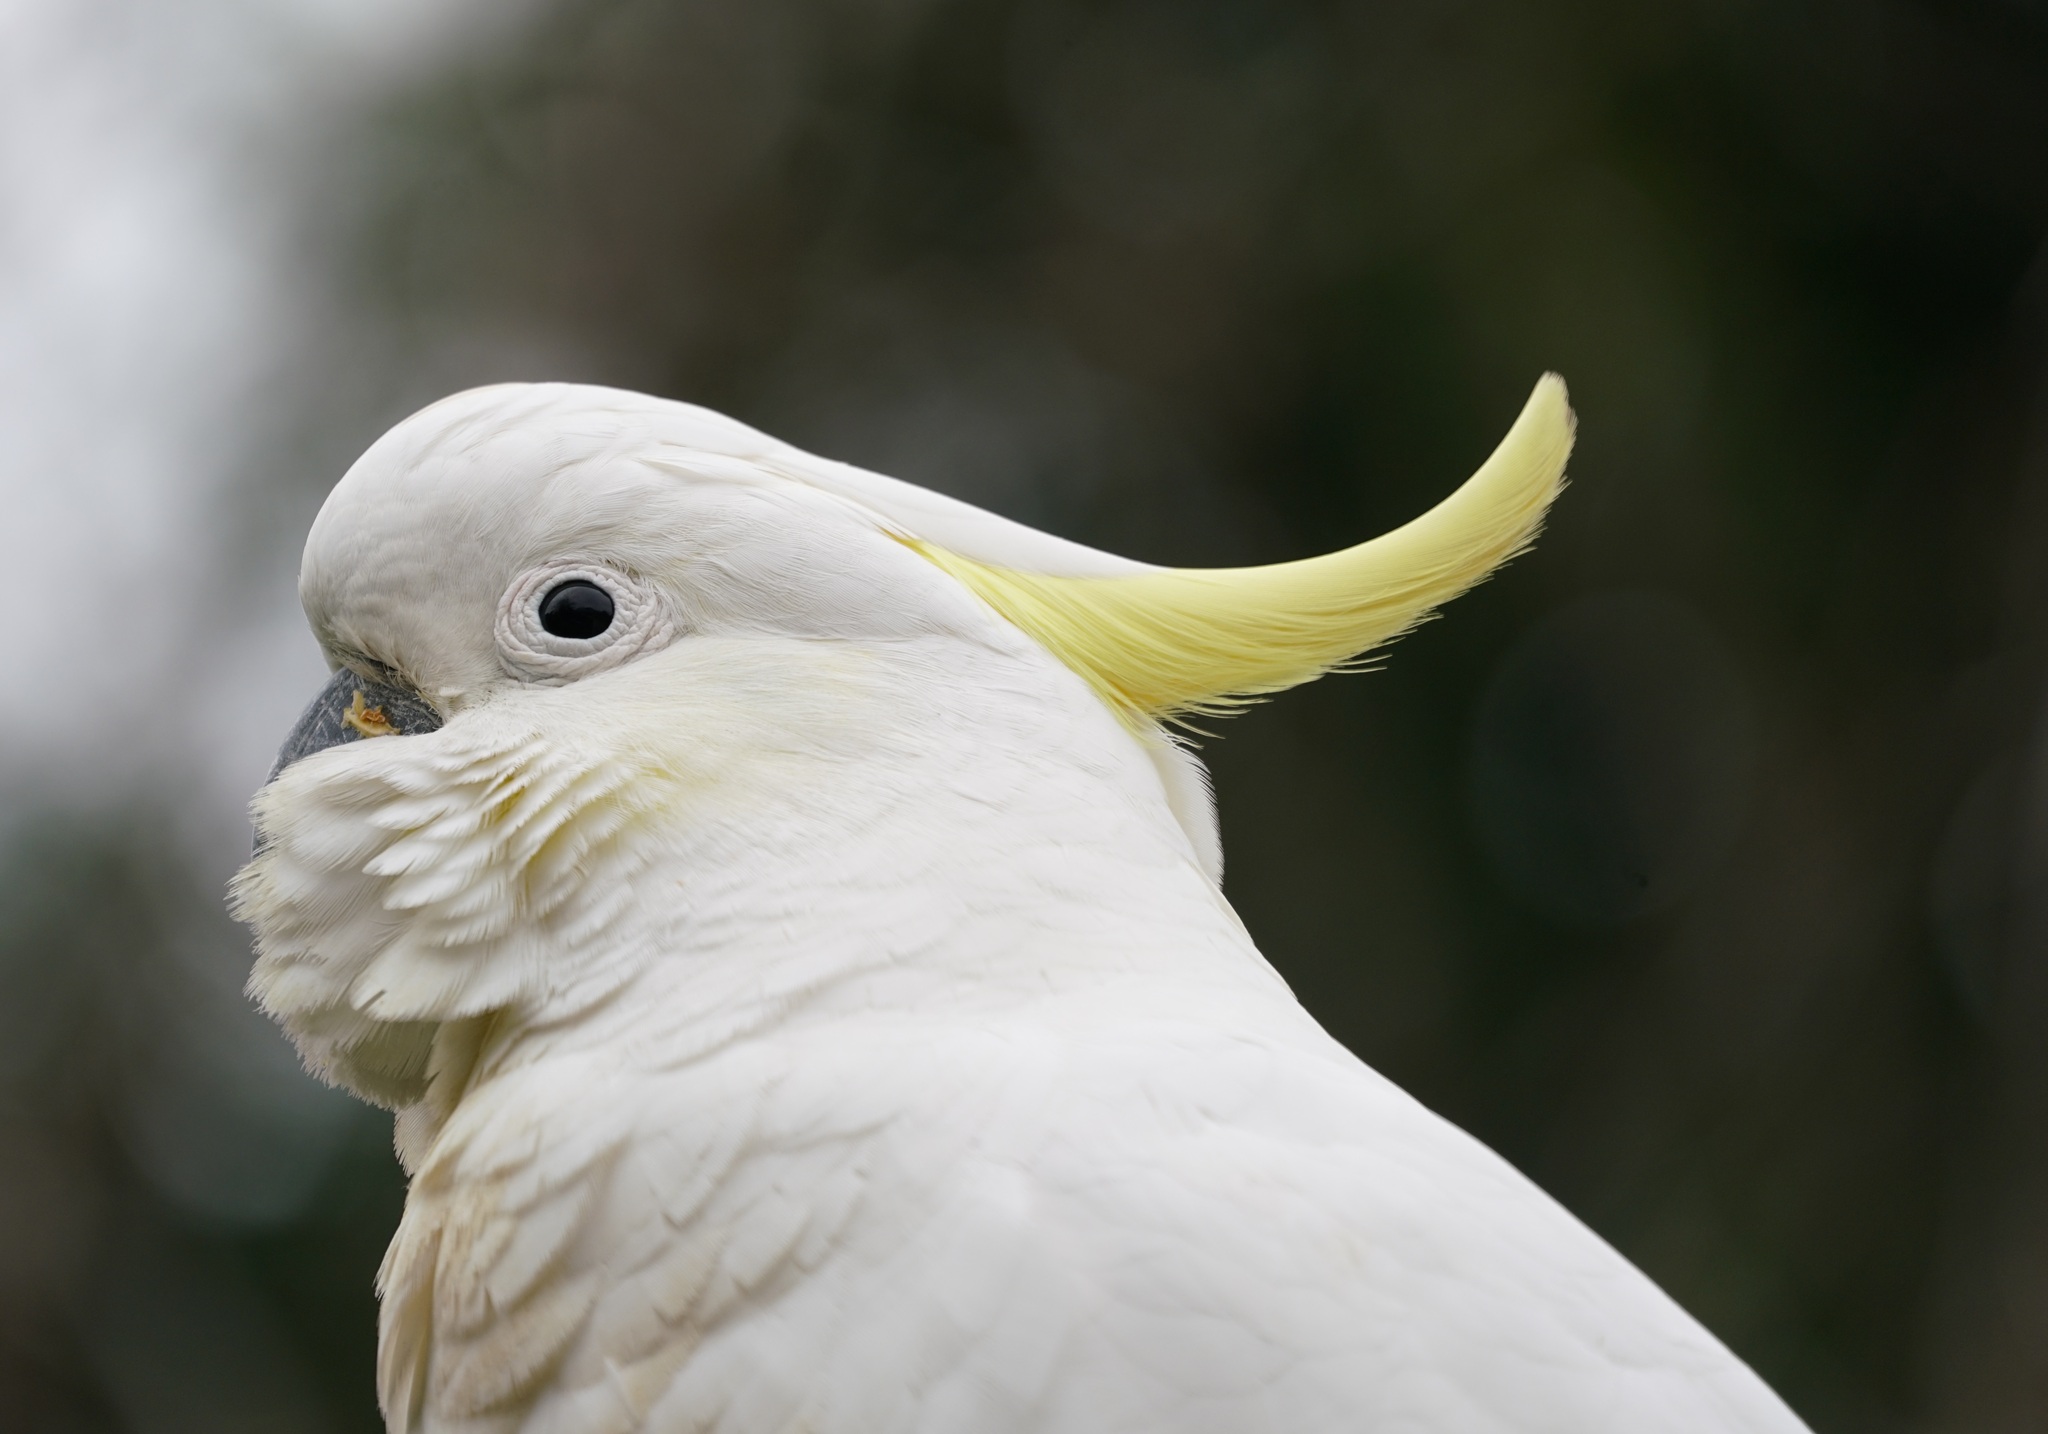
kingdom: Animalia
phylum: Chordata
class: Aves
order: Psittaciformes
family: Psittacidae
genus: Cacatua
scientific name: Cacatua galerita
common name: Sulphur-crested cockatoo
